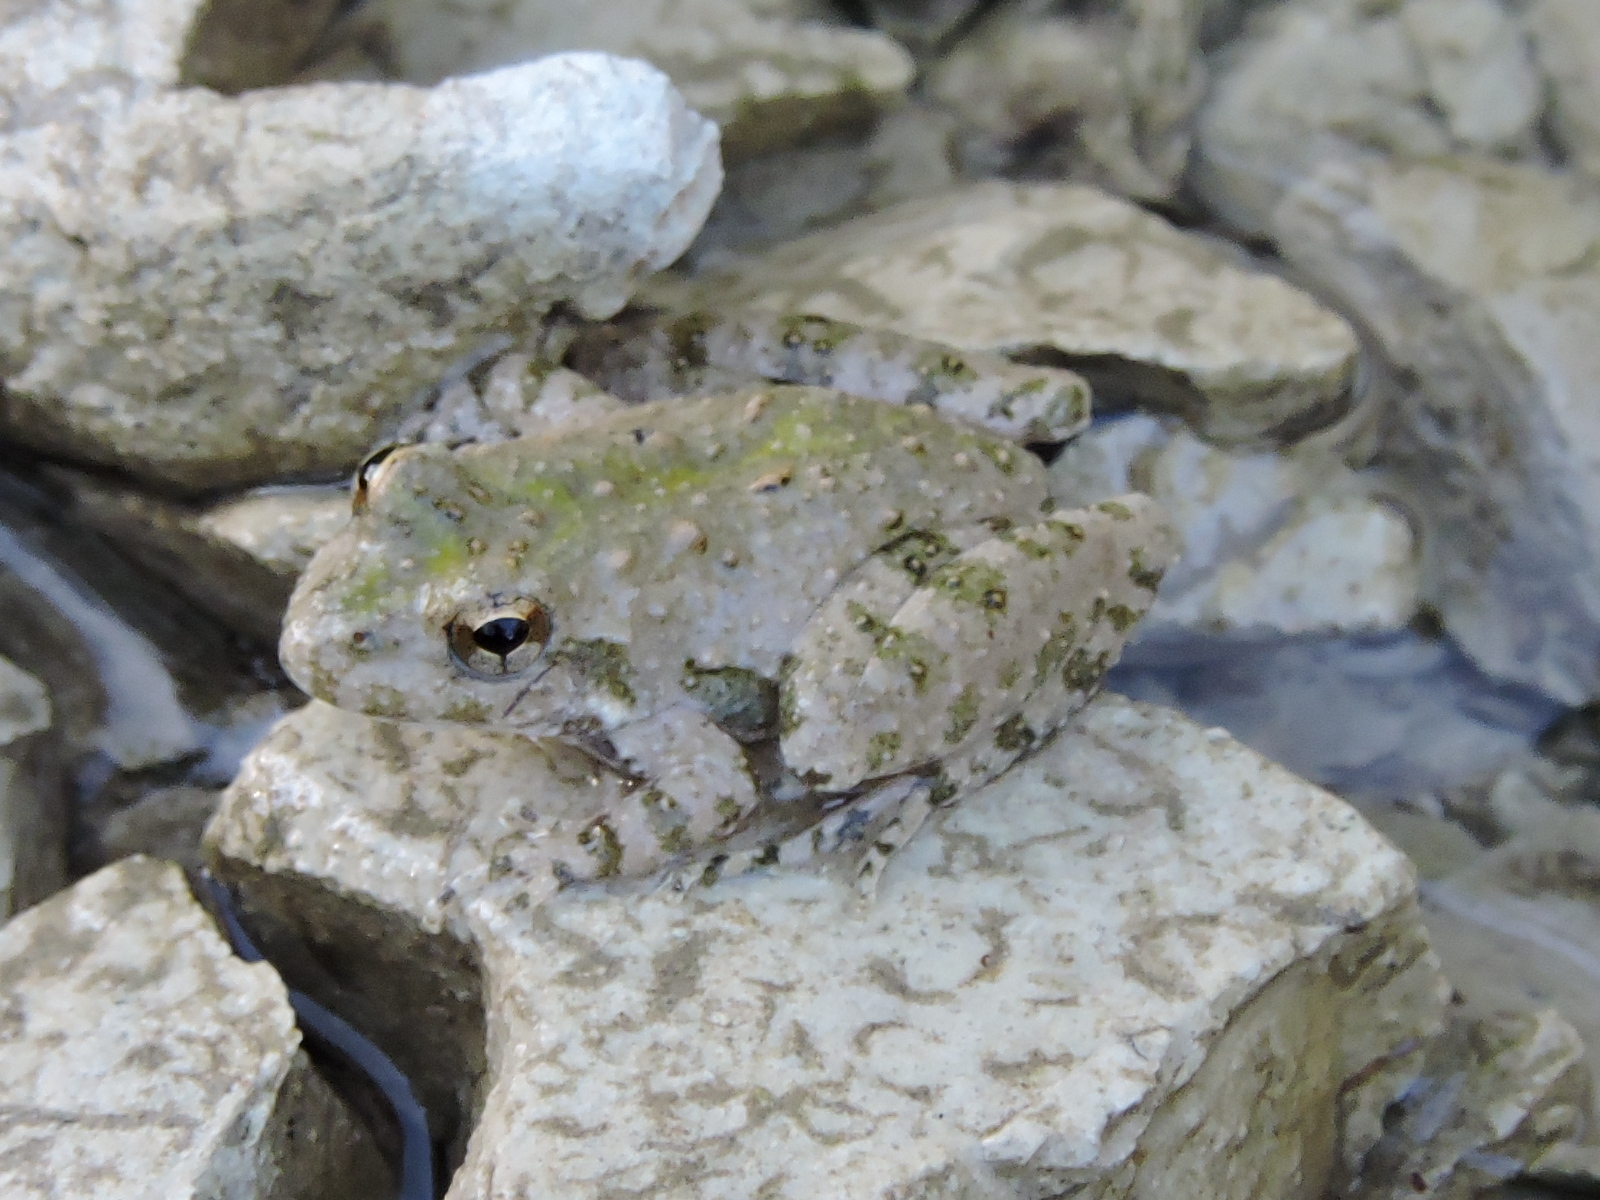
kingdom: Animalia
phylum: Chordata
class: Amphibia
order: Anura
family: Hylidae
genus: Acris
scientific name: Acris blanchardi
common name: Blanchard's cricket frog
